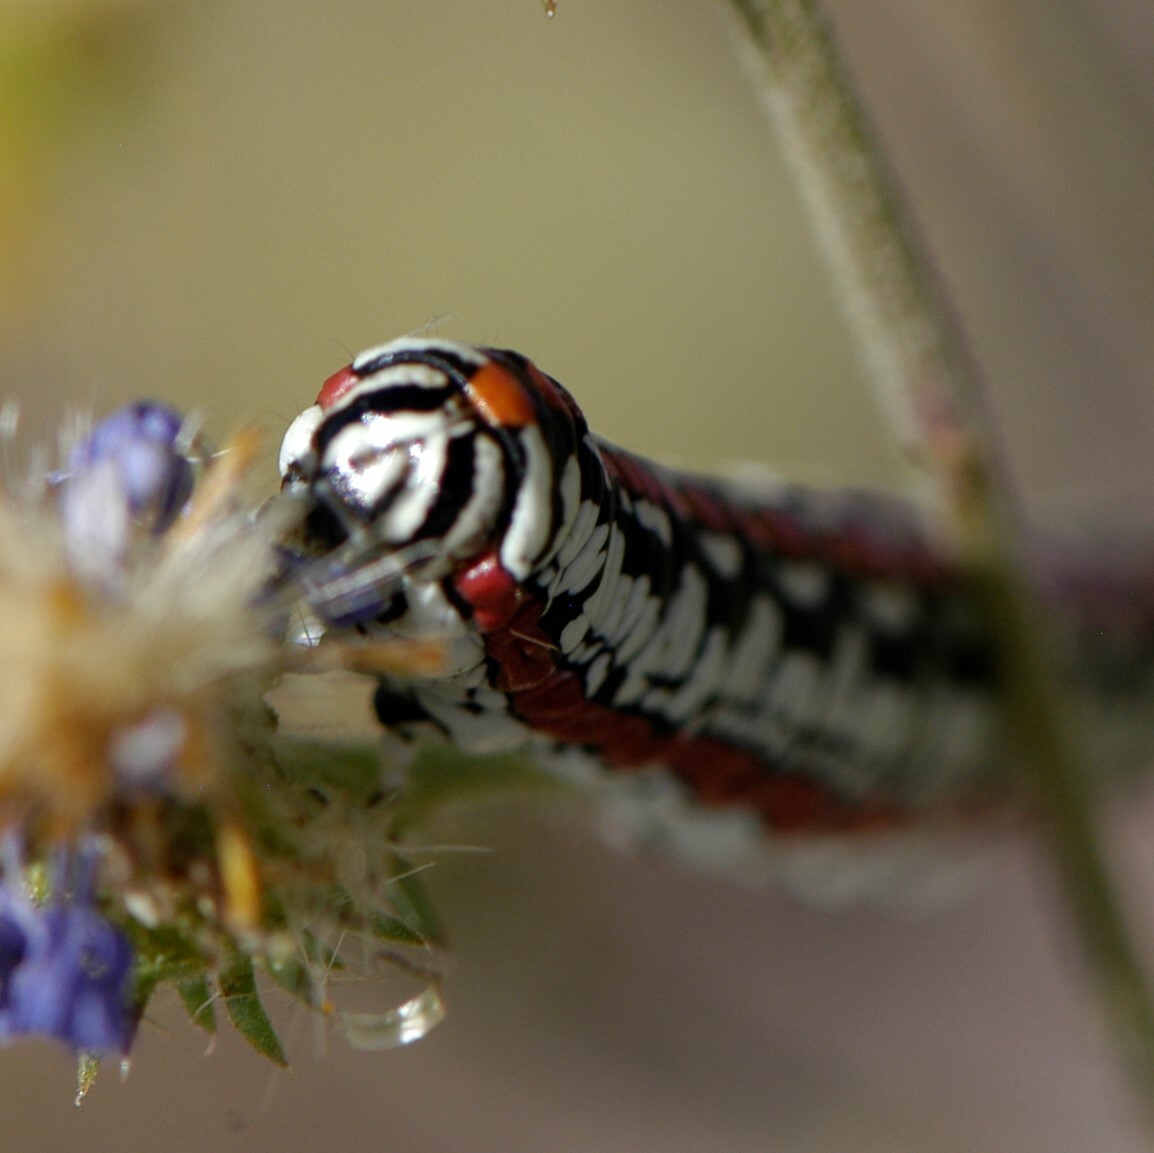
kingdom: Animalia
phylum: Arthropoda
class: Insecta
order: Lepidoptera
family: Noctuidae
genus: Cucullia
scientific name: Cucullia dorsalis
